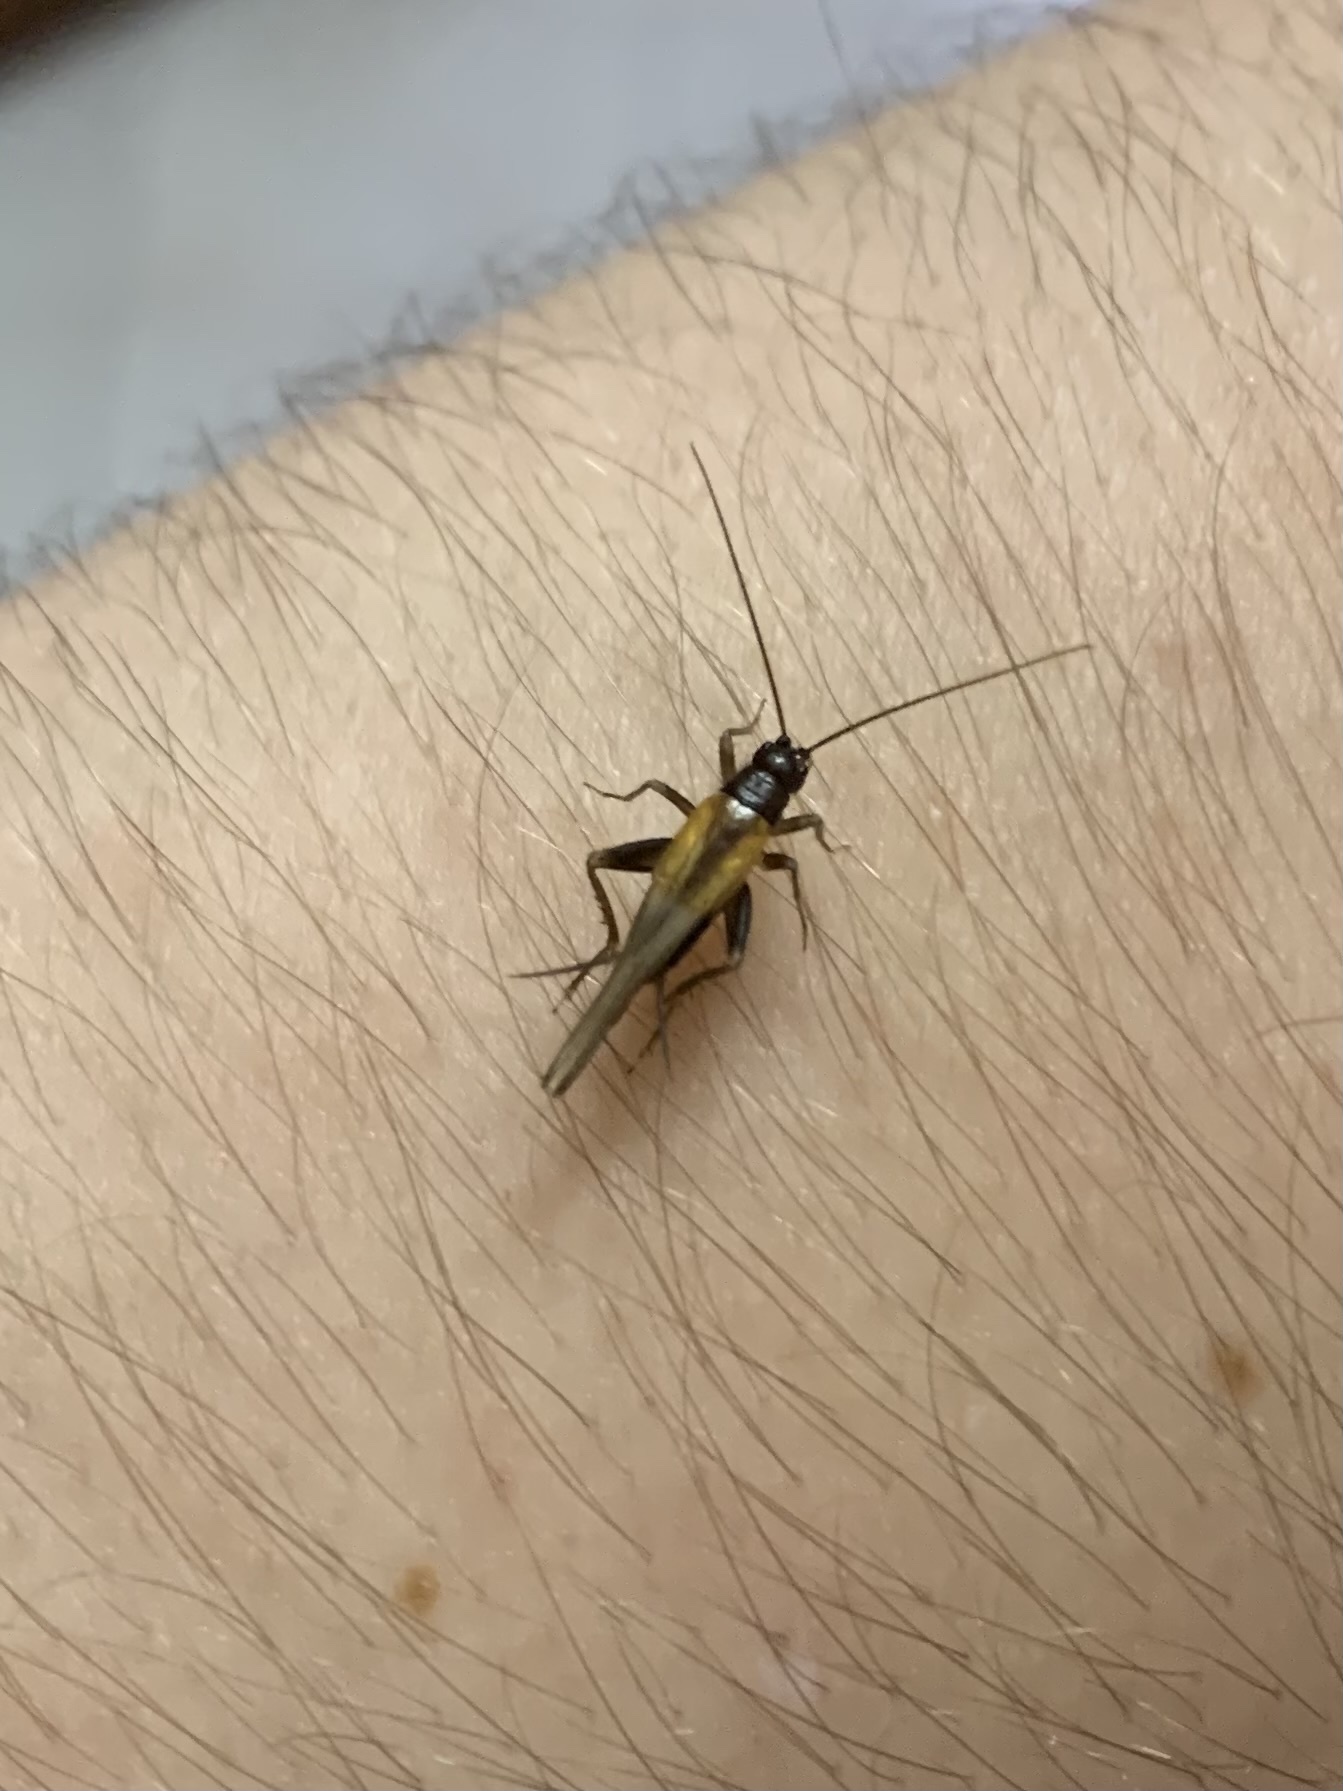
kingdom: Animalia
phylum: Arthropoda
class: Insecta
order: Orthoptera
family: Trigonidiidae
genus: Stenonemobius
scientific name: Stenonemobius gracilis
